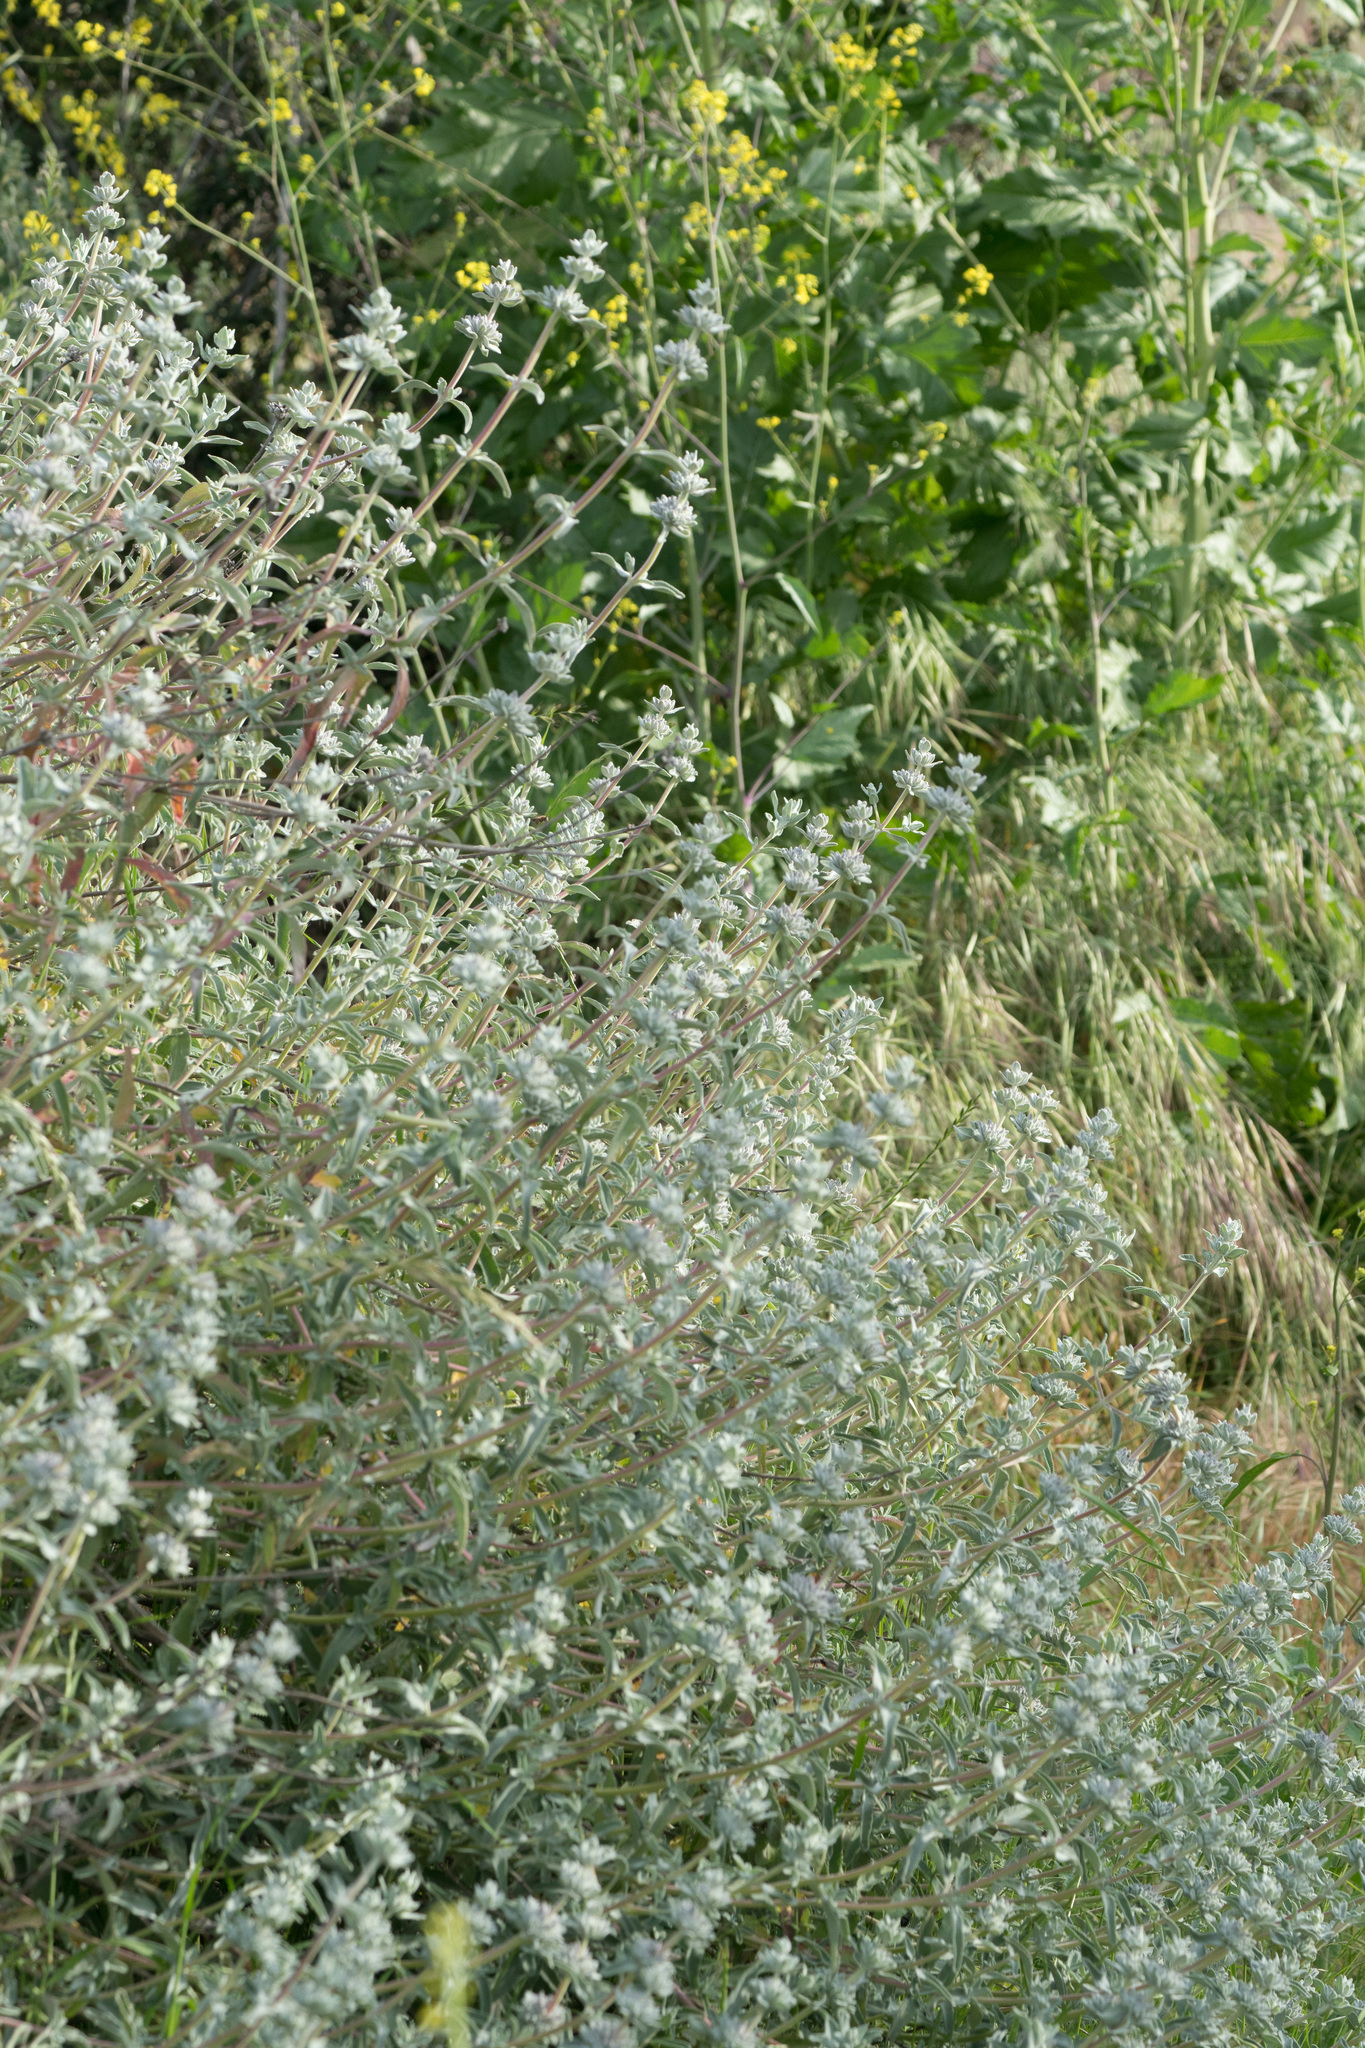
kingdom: Plantae
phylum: Tracheophyta
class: Magnoliopsida
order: Lamiales
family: Lamiaceae
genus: Salvia
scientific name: Salvia leucophylla
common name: Purple sage
